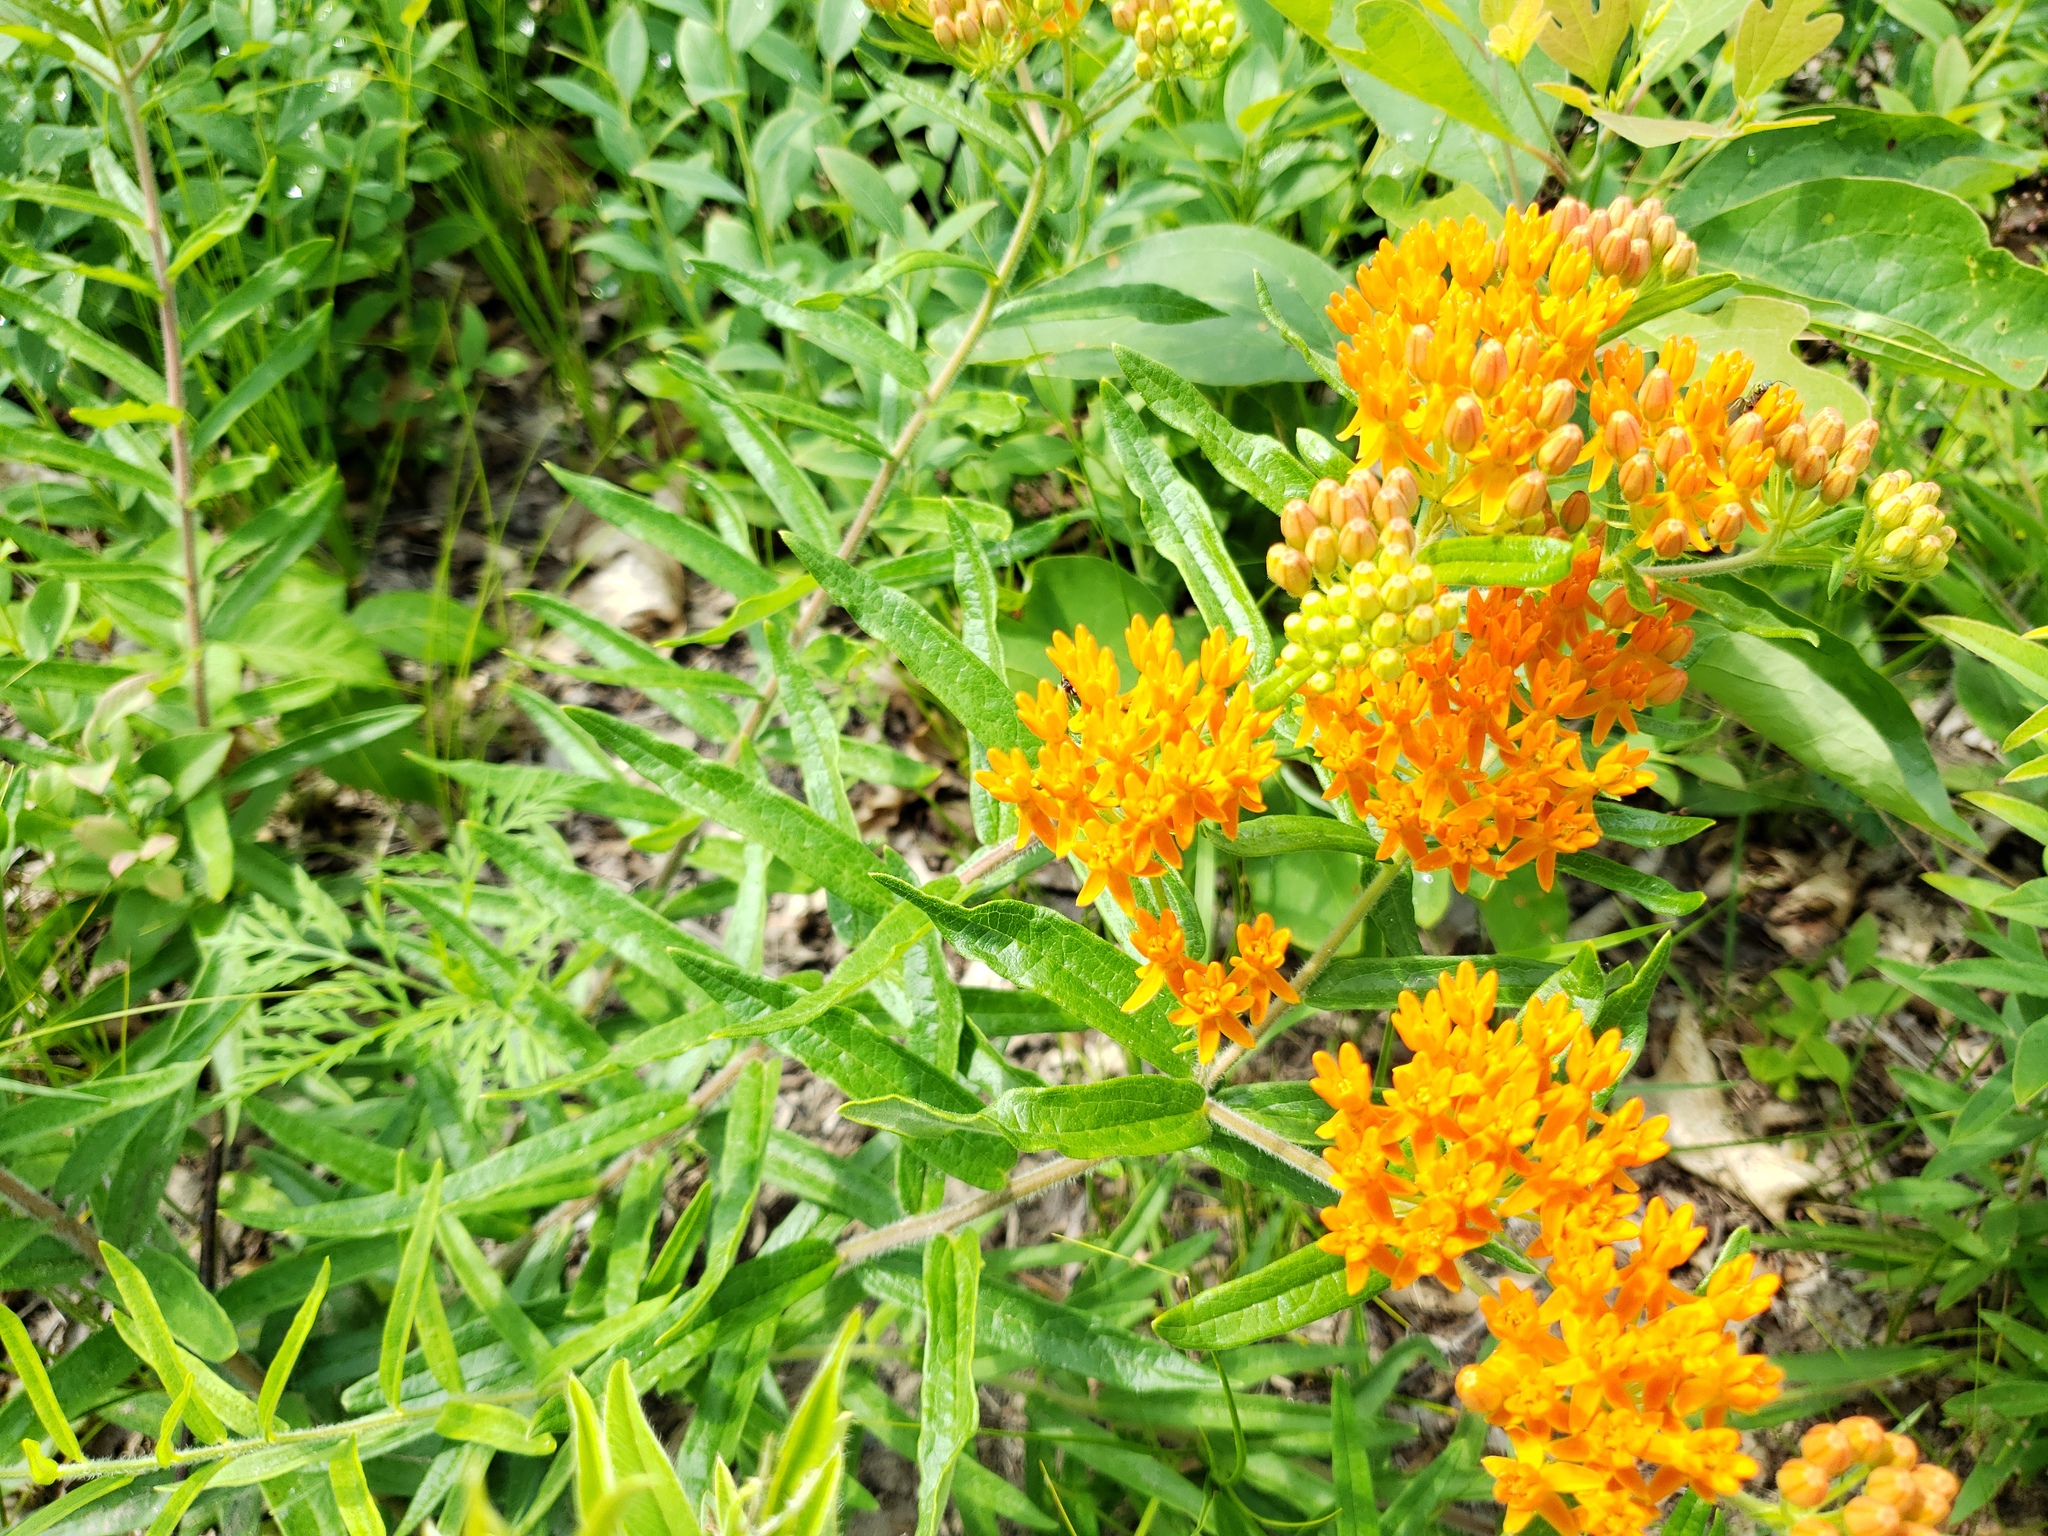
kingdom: Plantae
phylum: Tracheophyta
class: Magnoliopsida
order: Gentianales
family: Apocynaceae
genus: Asclepias
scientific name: Asclepias tuberosa
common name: Butterfly milkweed
